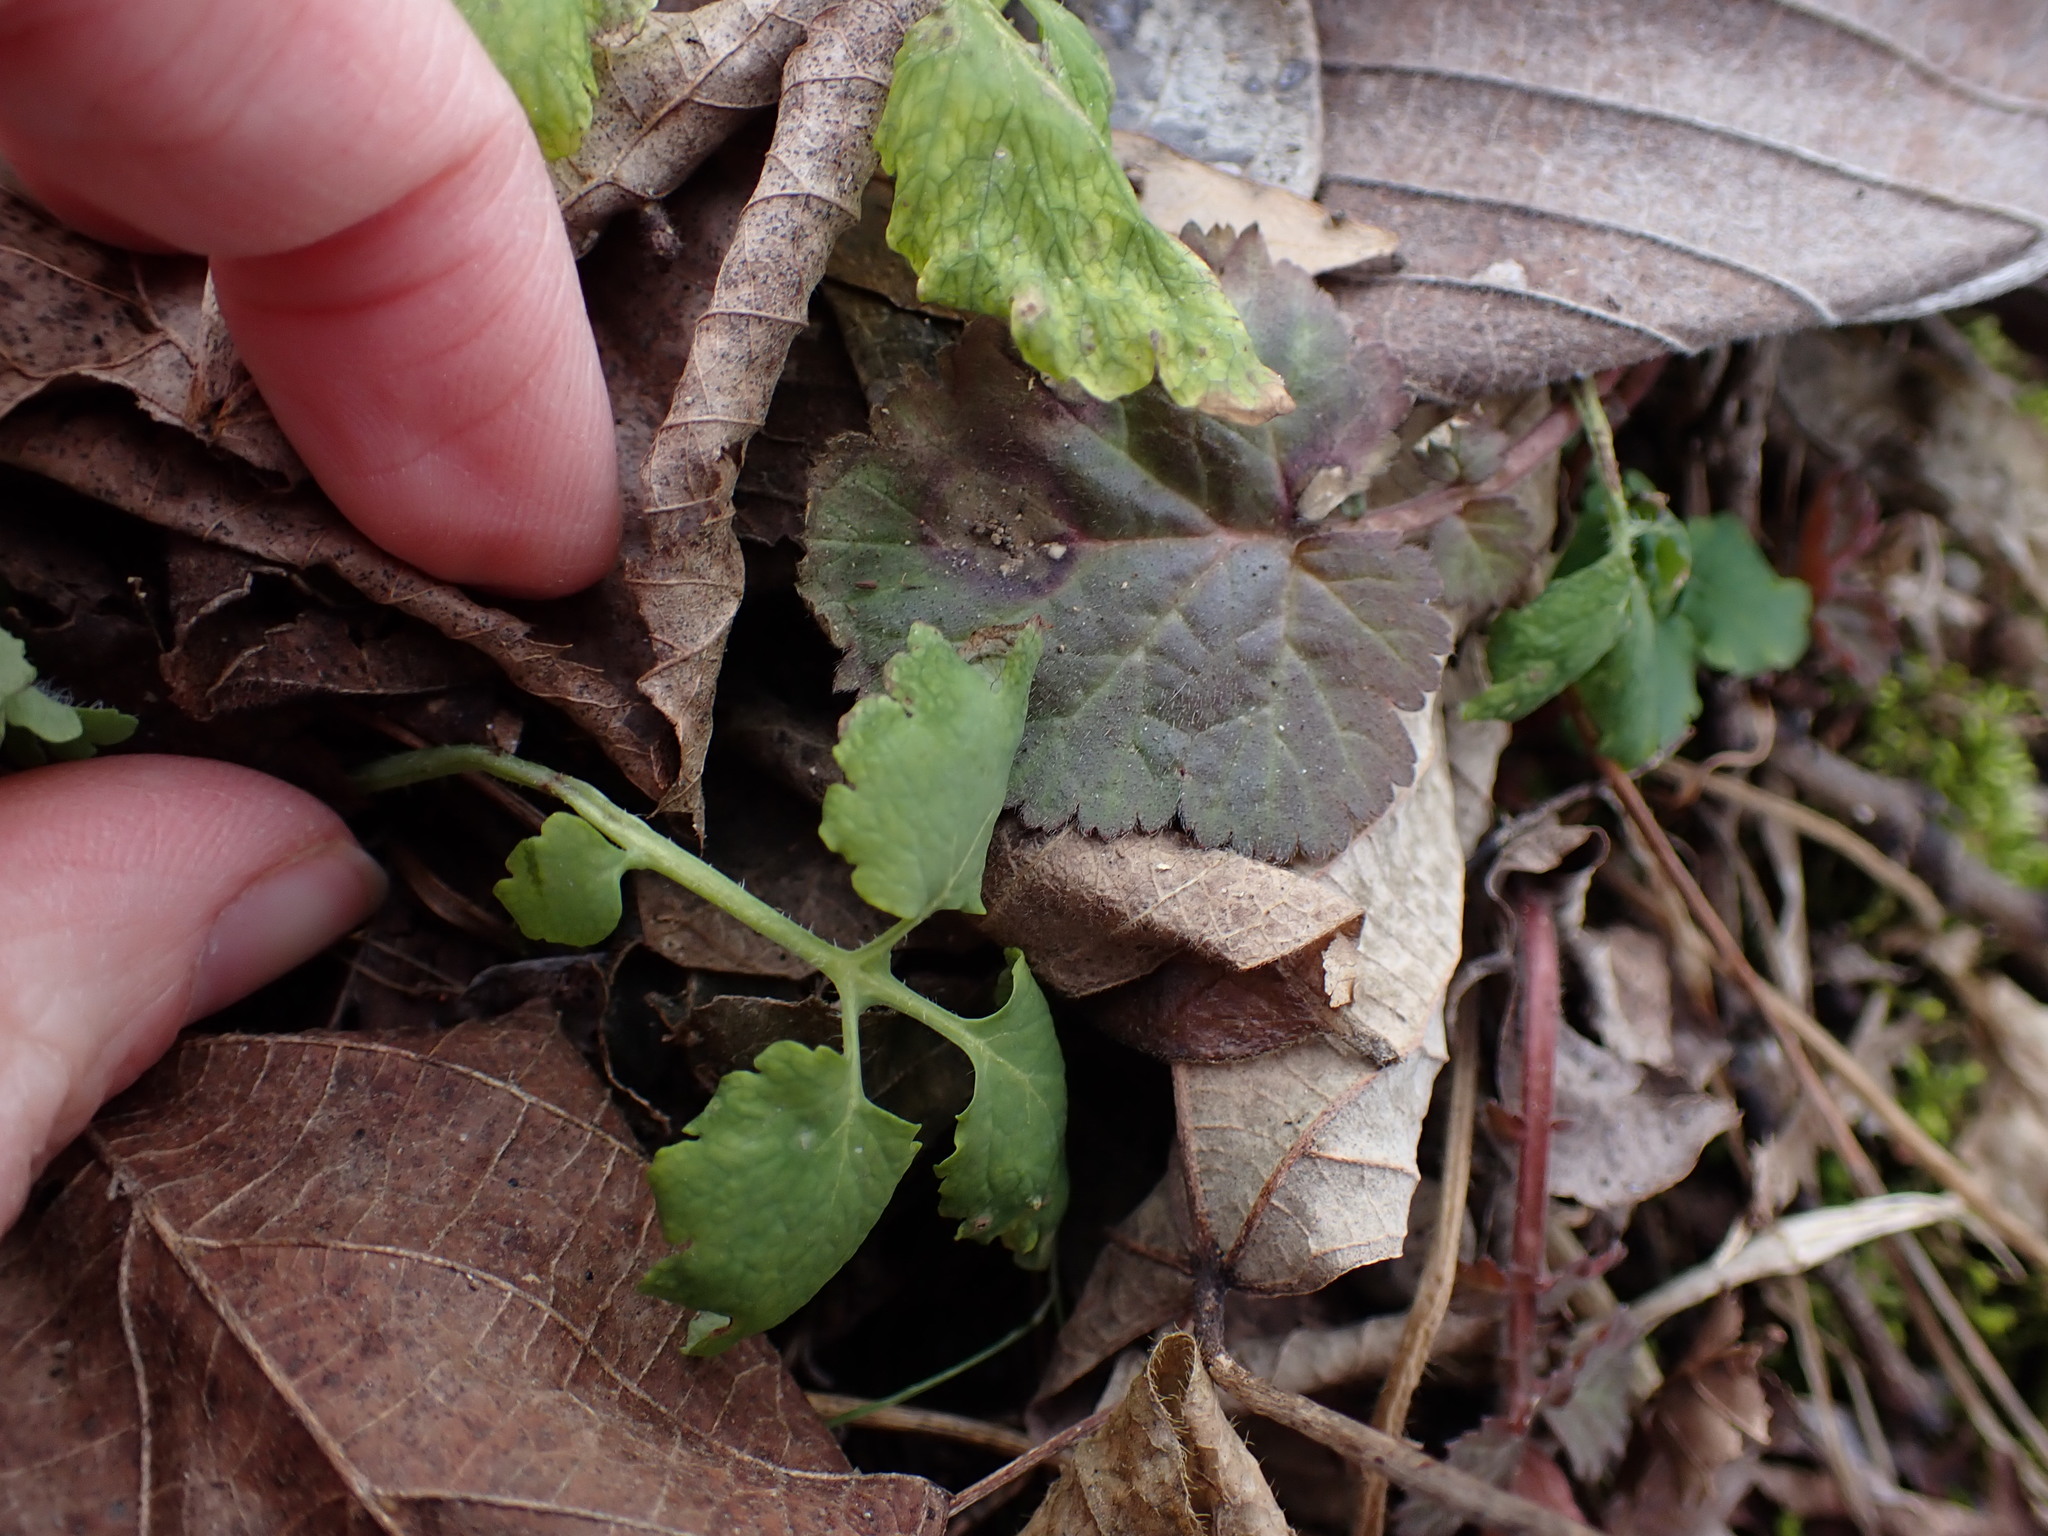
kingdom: Plantae
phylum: Tracheophyta
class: Magnoliopsida
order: Ranunculales
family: Papaveraceae
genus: Chelidonium
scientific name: Chelidonium majus
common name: Greater celandine
